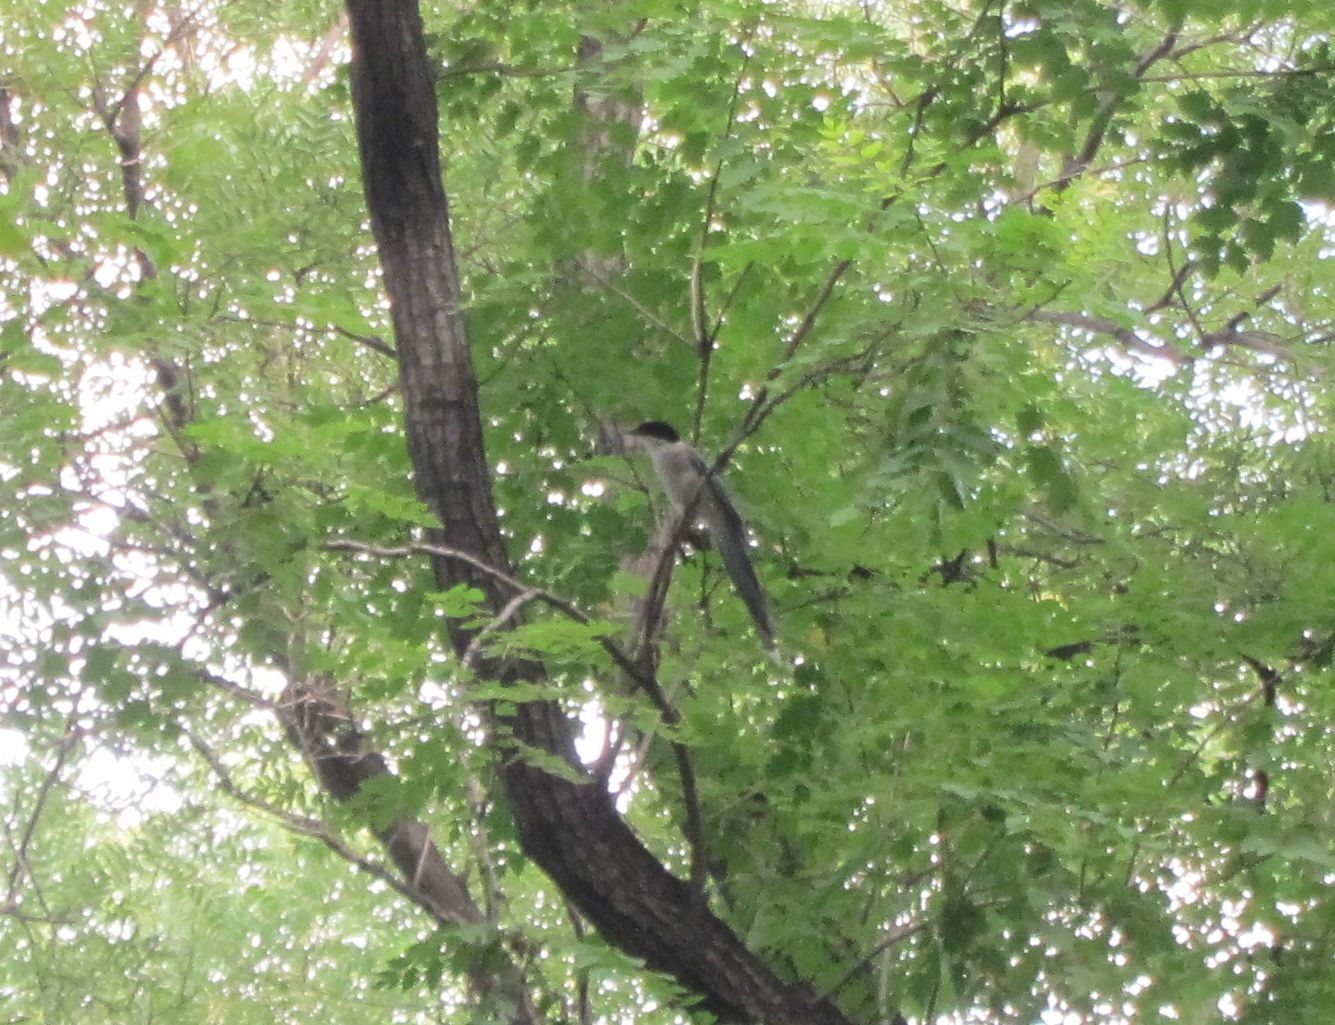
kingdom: Animalia
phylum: Chordata
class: Aves
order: Passeriformes
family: Corvidae
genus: Cyanopica
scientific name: Cyanopica cyanus
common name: Azure-winged magpie
